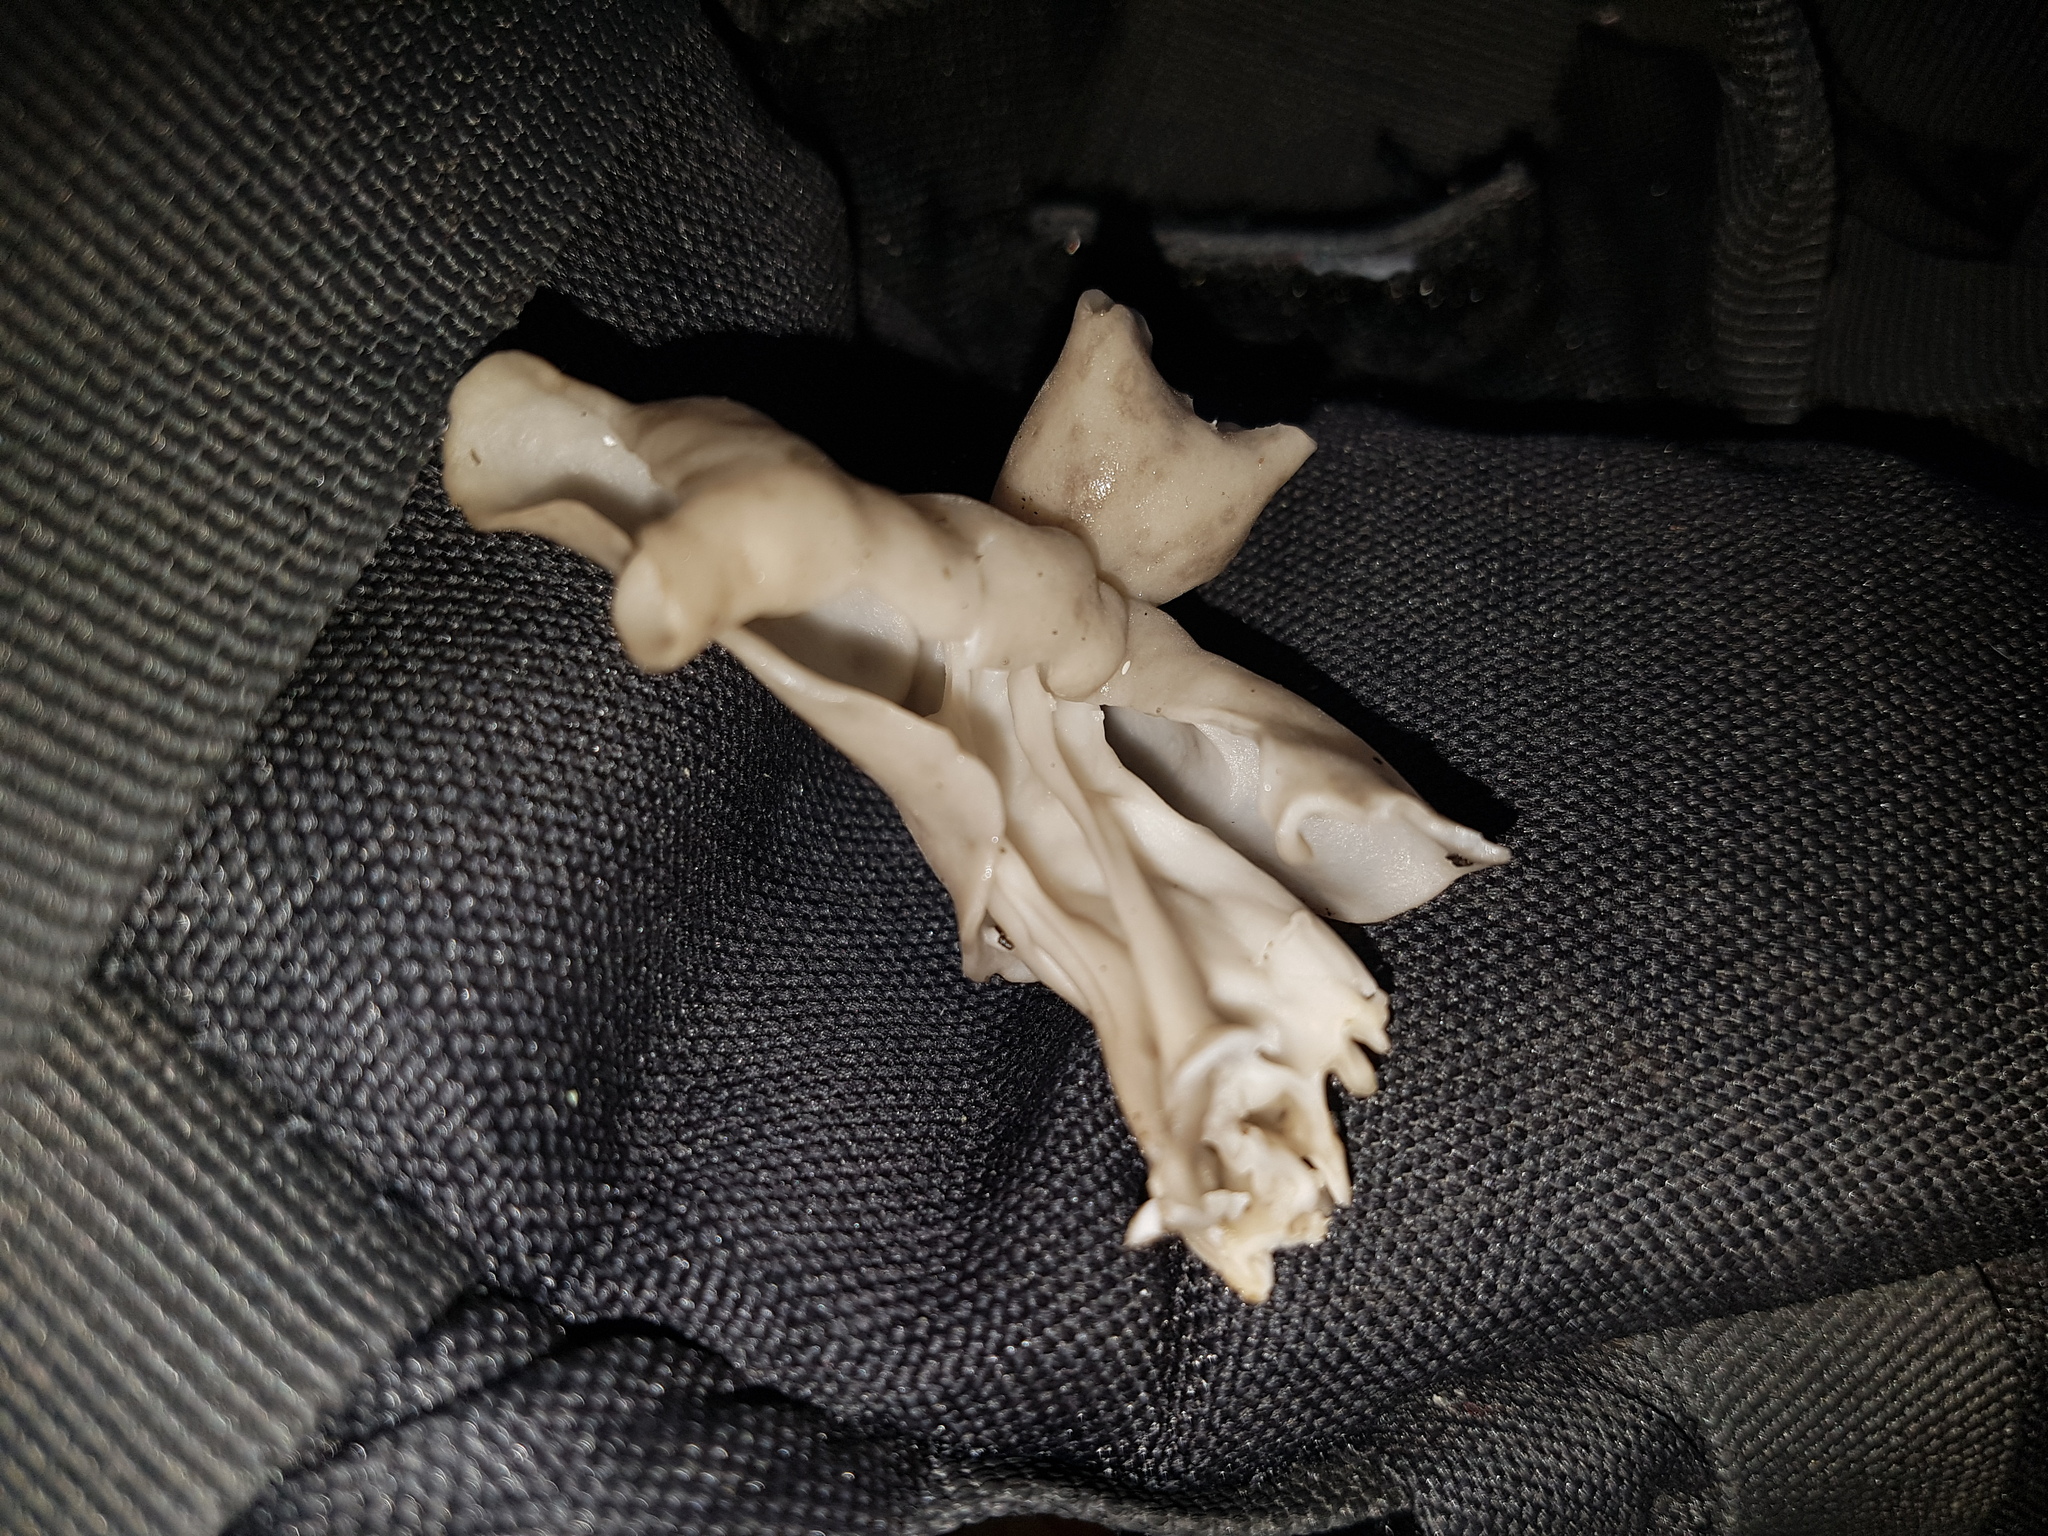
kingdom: Fungi
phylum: Ascomycota
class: Pezizomycetes
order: Pezizales
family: Helvellaceae
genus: Helvella
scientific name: Helvella lacunosa
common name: Elfin saddle
